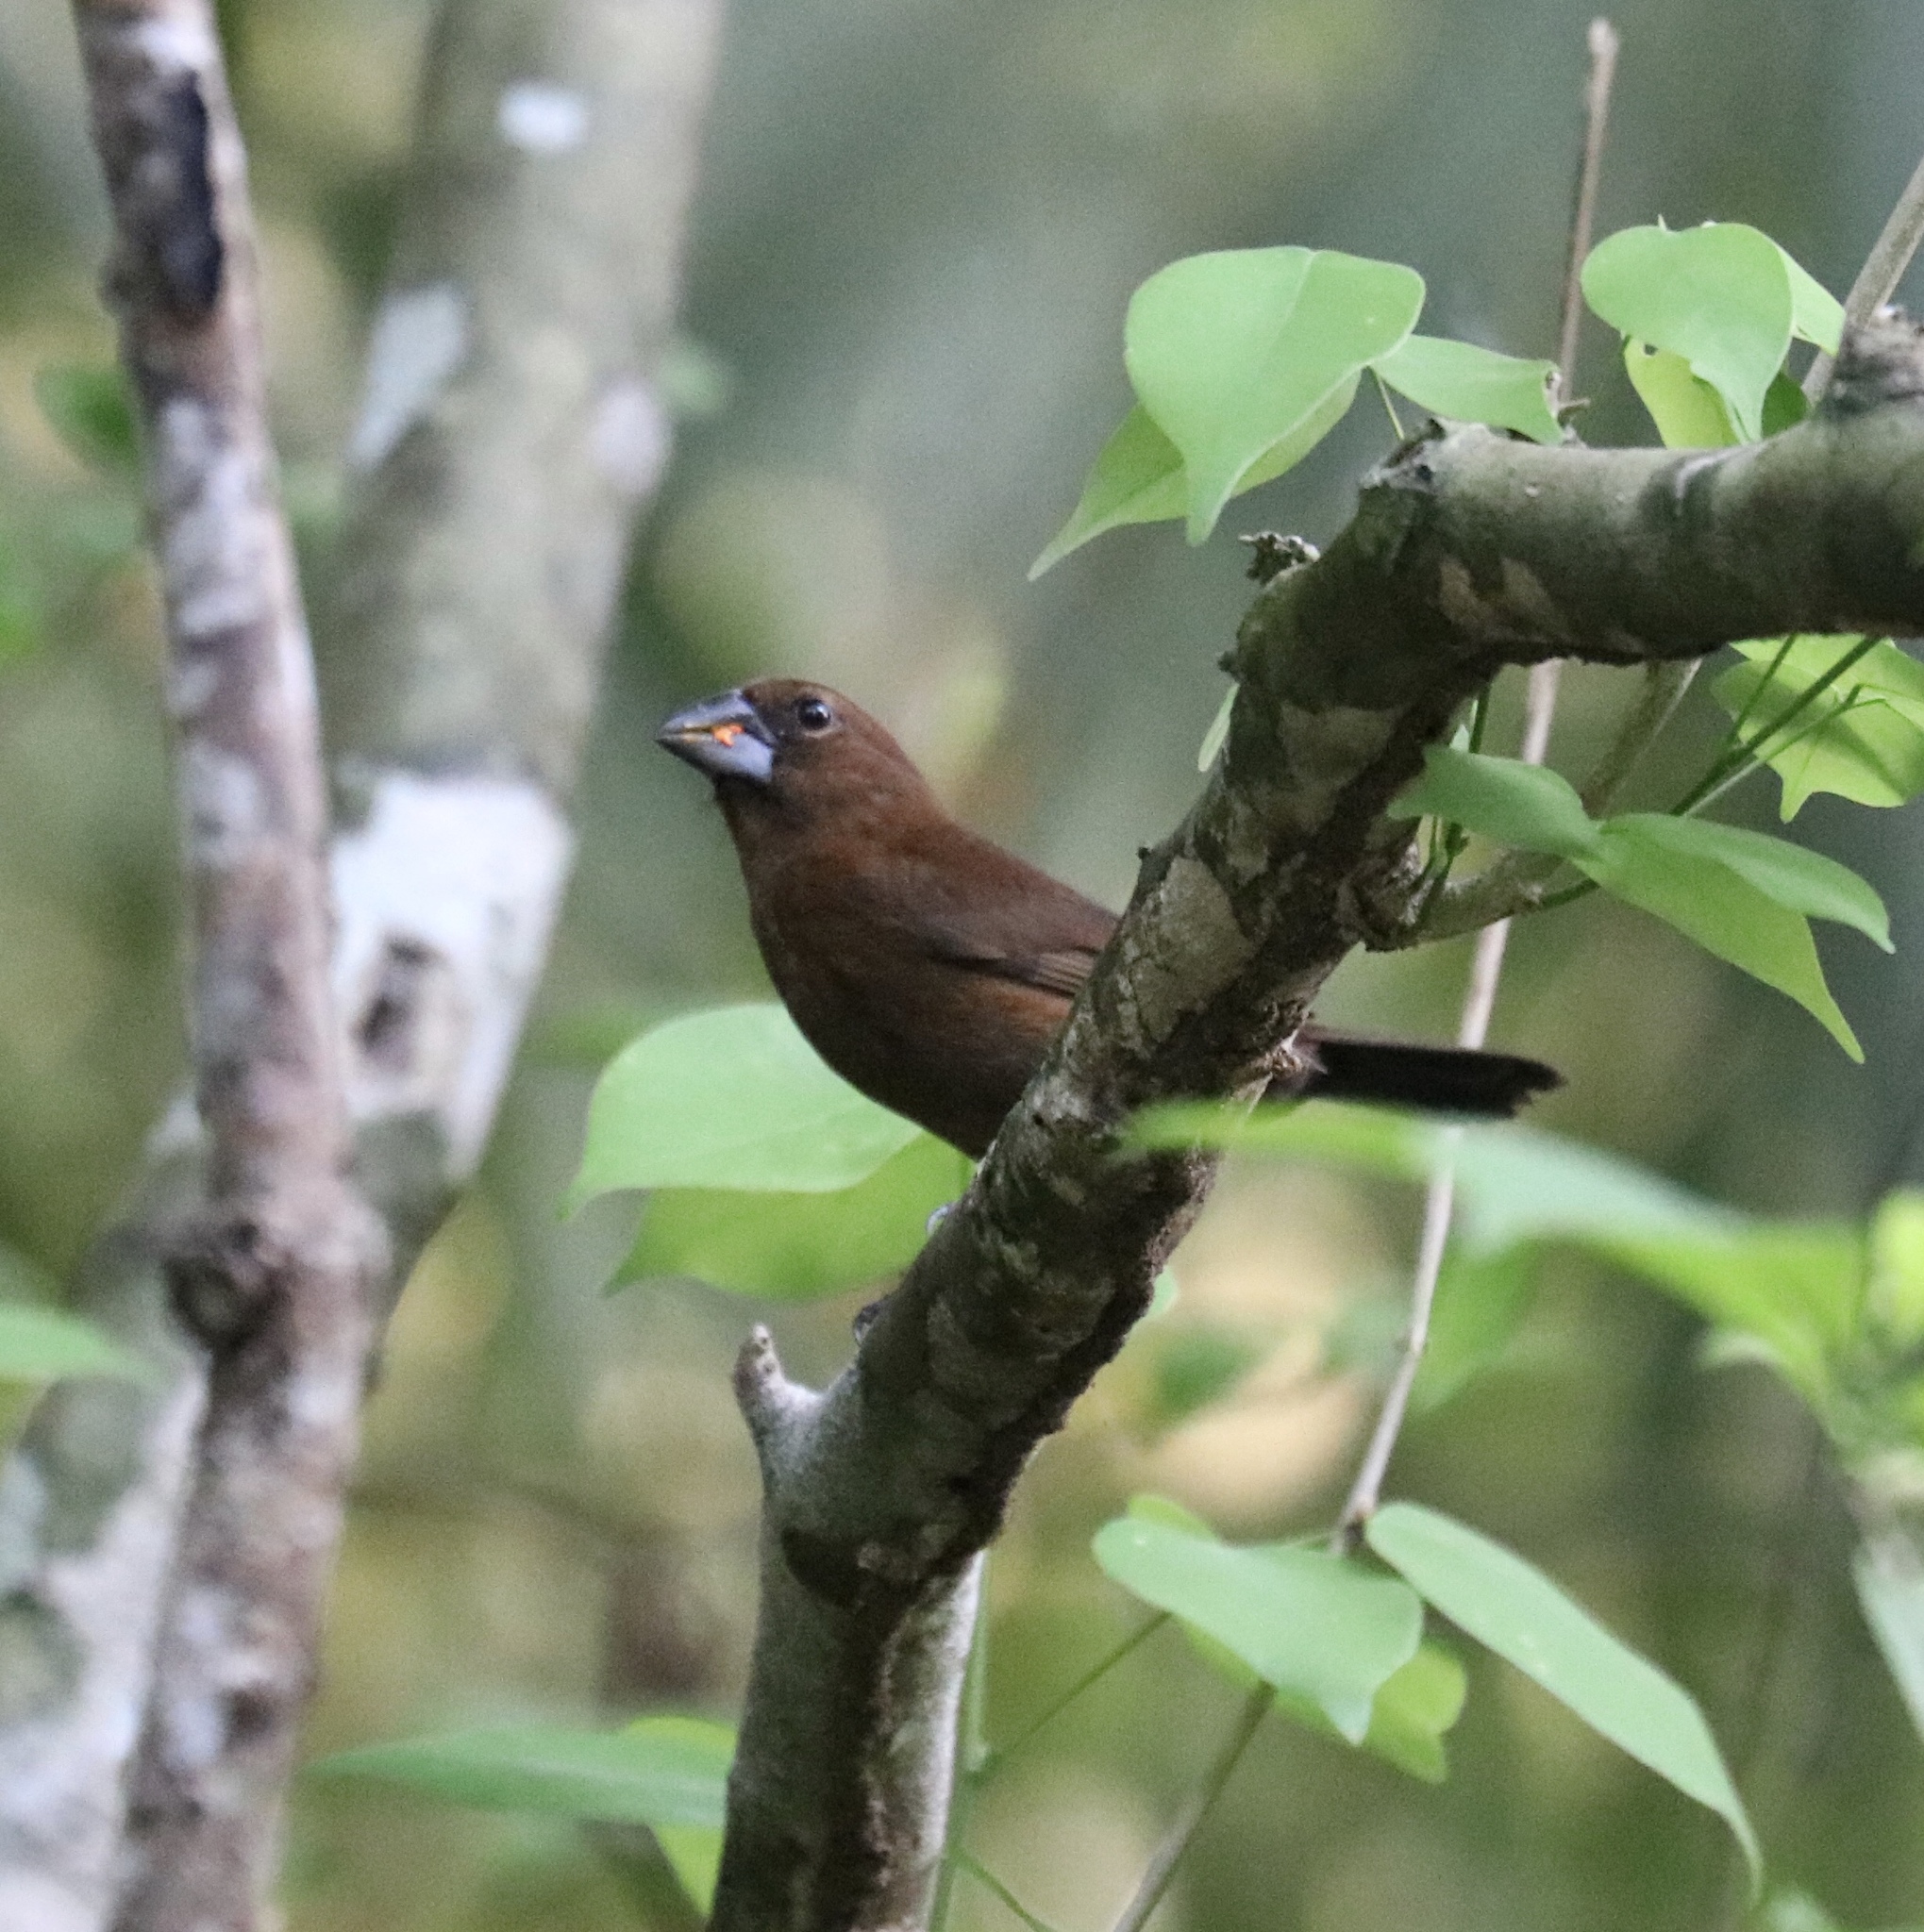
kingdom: Animalia
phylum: Chordata
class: Aves
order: Passeriformes
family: Cardinalidae
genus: Cyanocompsa
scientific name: Cyanocompsa cyanoides
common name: Blue-black grosbeak
